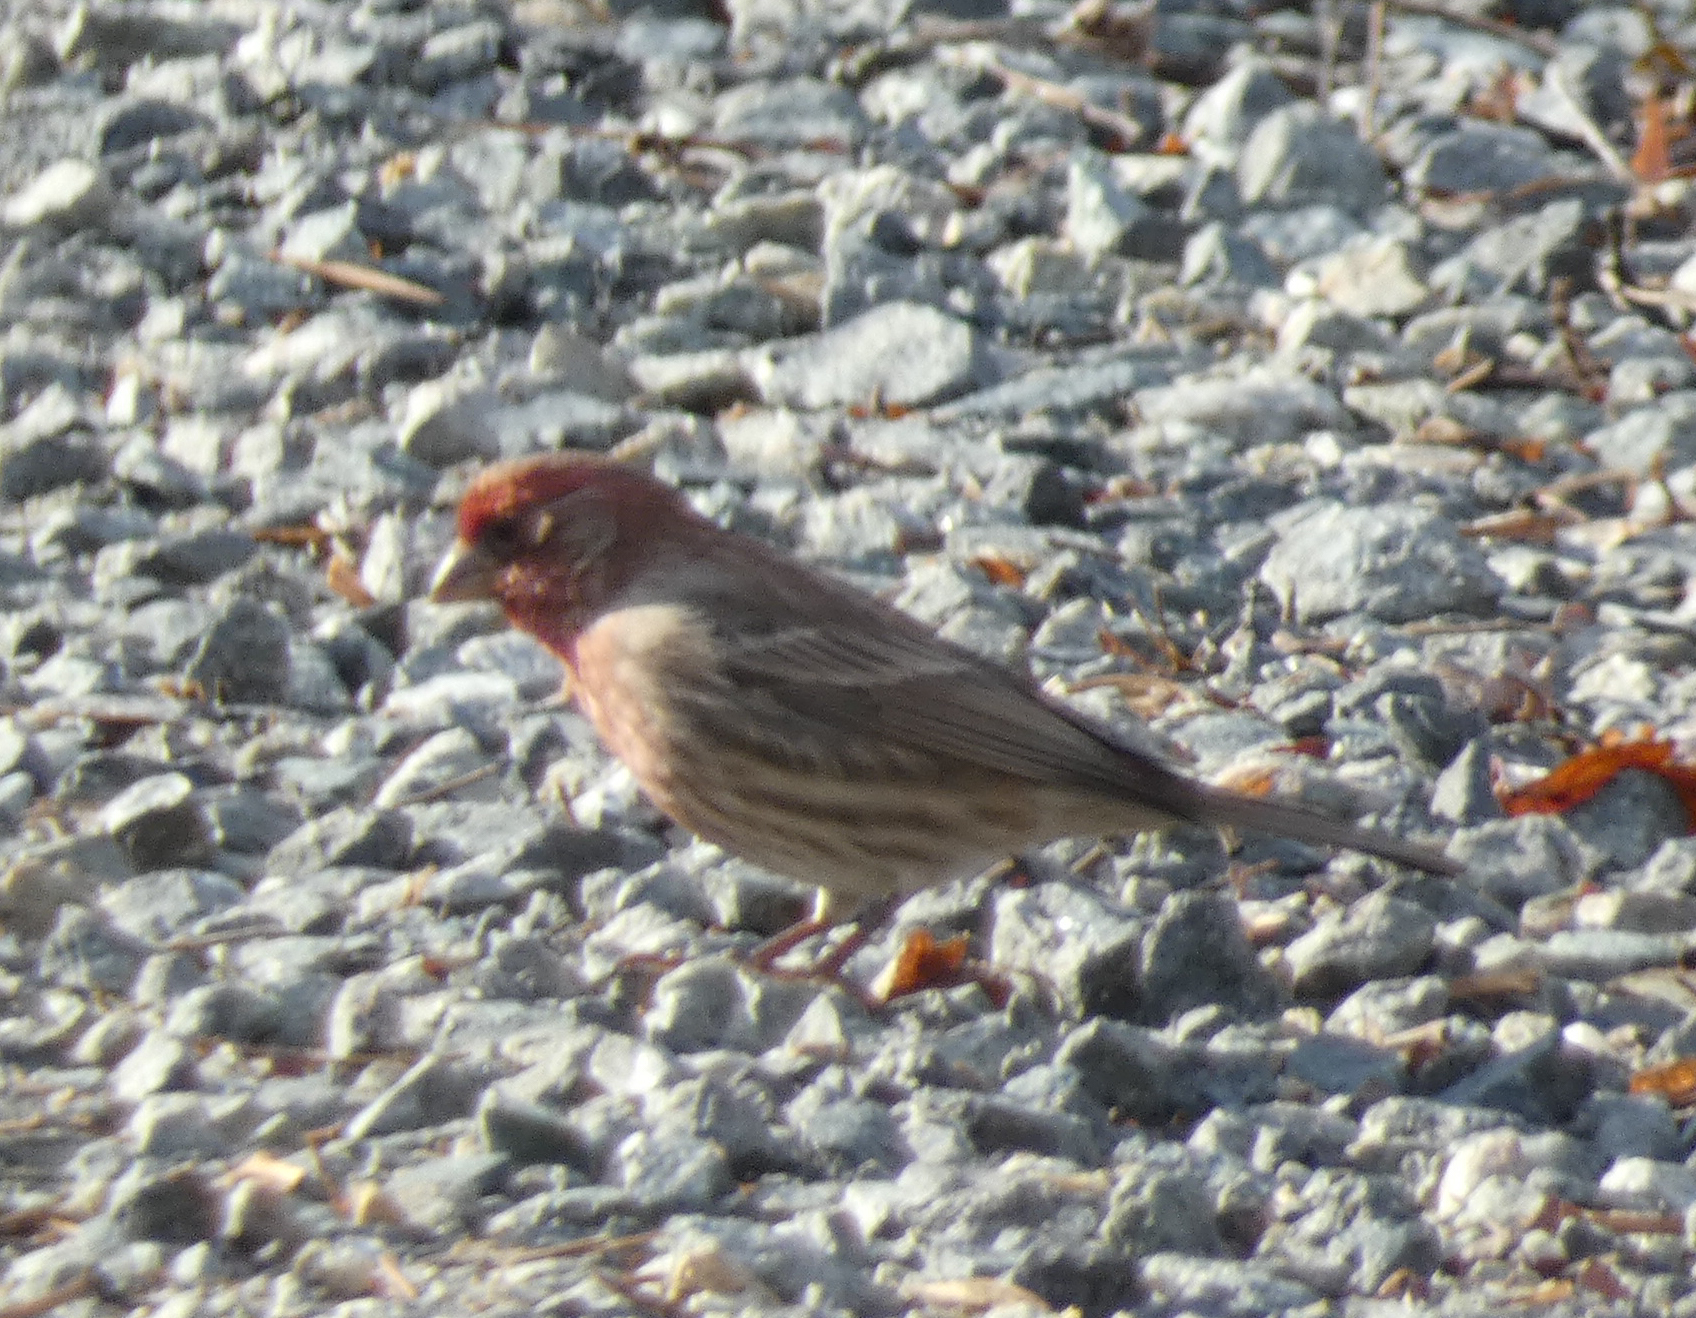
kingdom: Animalia
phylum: Chordata
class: Aves
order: Passeriformes
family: Fringillidae
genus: Haemorhous
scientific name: Haemorhous mexicanus
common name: House finch
